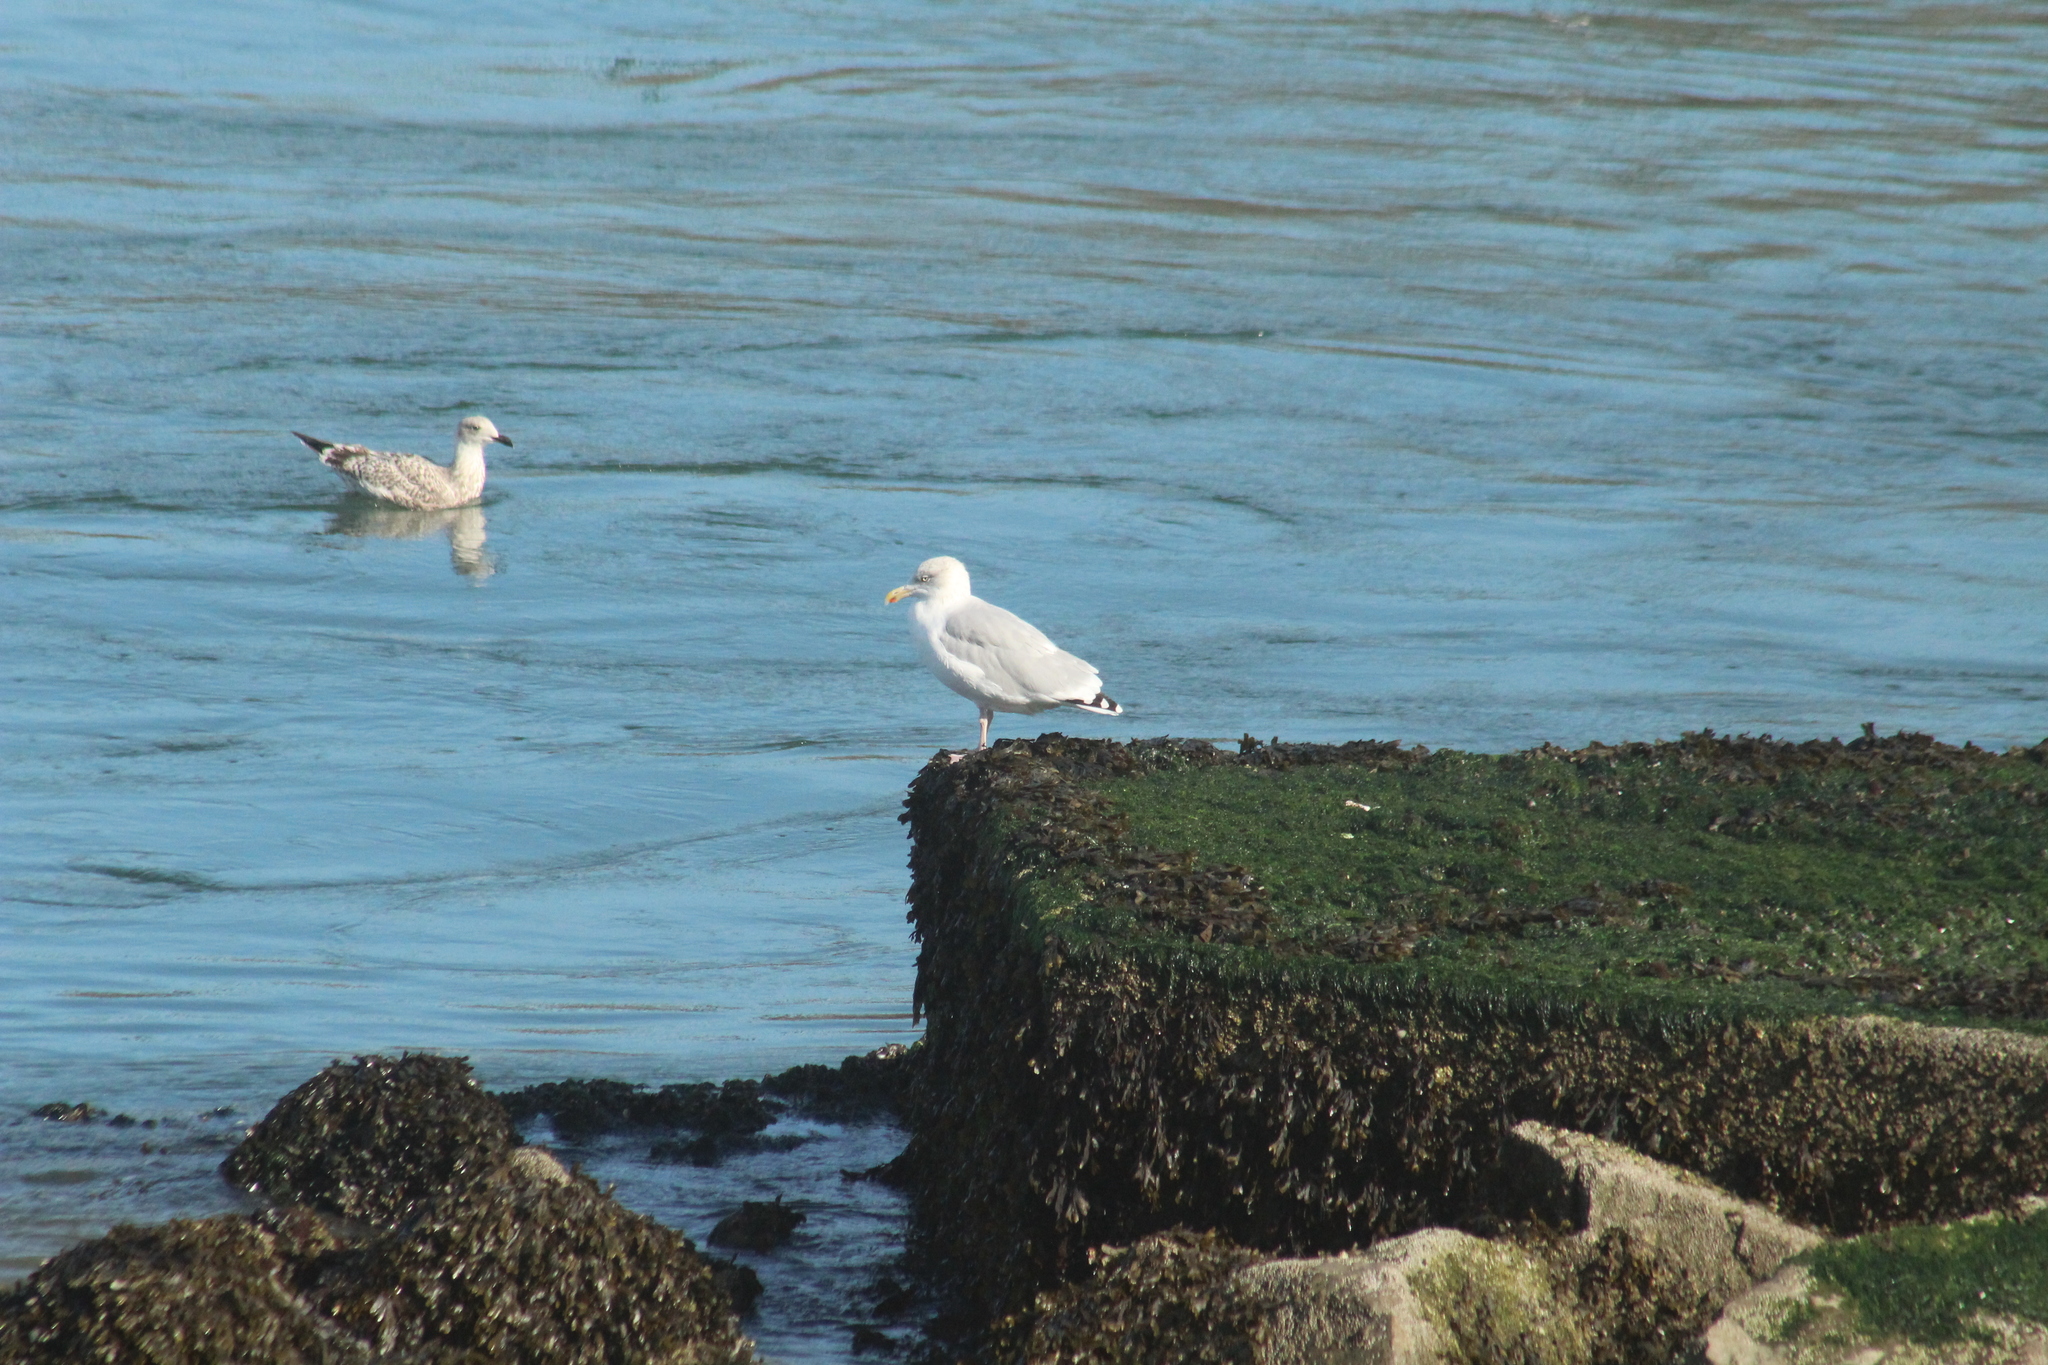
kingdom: Animalia
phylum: Chordata
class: Aves
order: Charadriiformes
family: Laridae
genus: Larus
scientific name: Larus argentatus
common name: Herring gull
